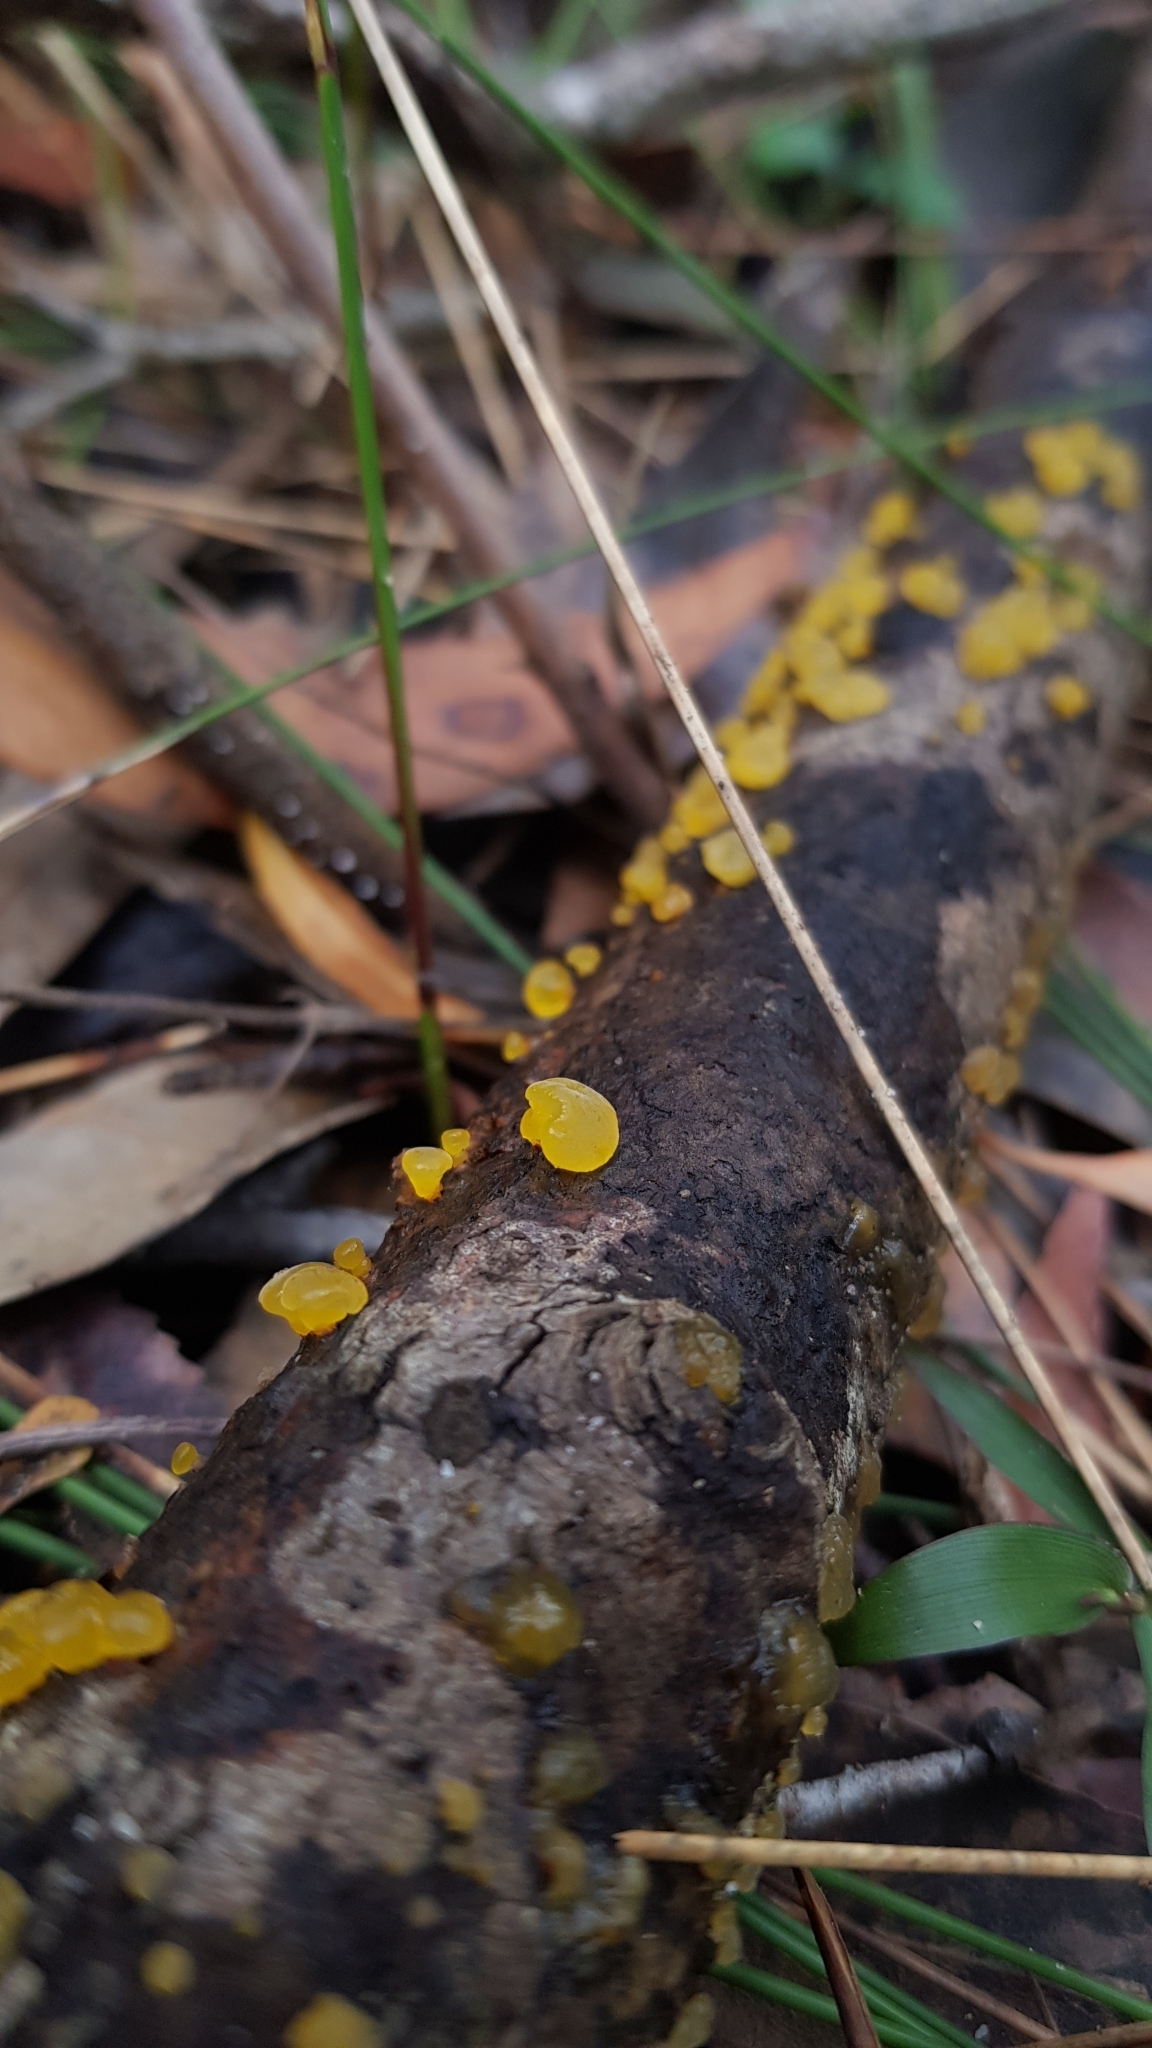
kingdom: Fungi
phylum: Basidiomycota
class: Dacrymycetes
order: Dacrymycetales
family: Dacrymycetaceae
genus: Heterotextus
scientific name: Heterotextus peziziformis
